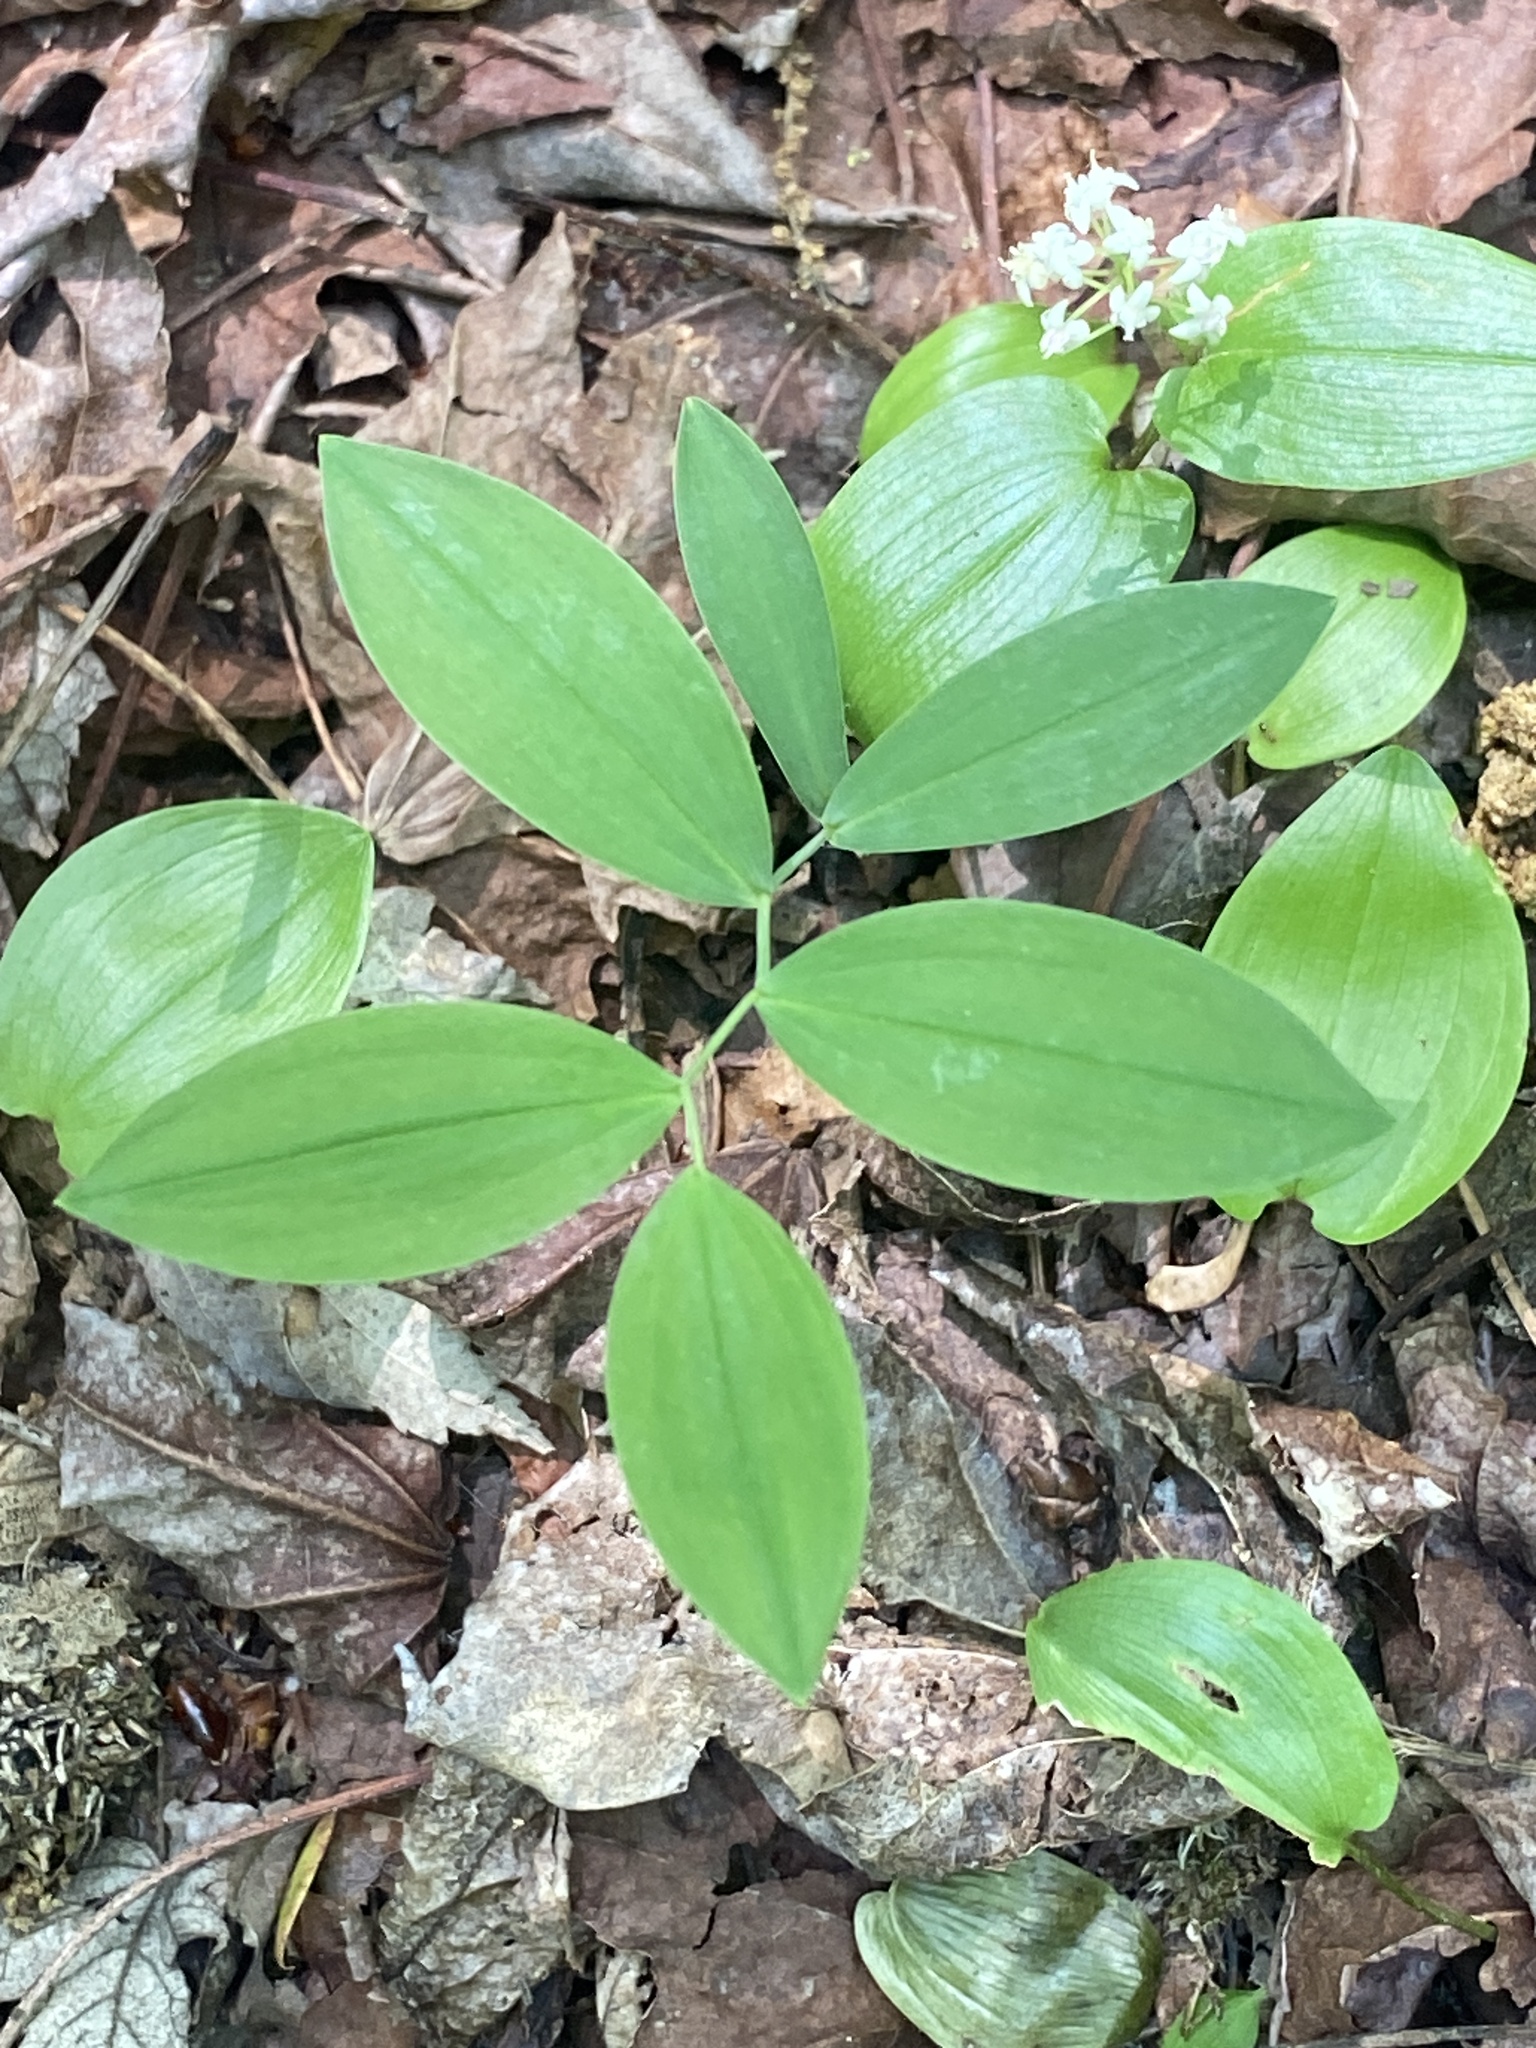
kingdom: Plantae
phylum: Tracheophyta
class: Liliopsida
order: Liliales
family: Colchicaceae
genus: Uvularia
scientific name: Uvularia sessilifolia
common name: Straw-lily
